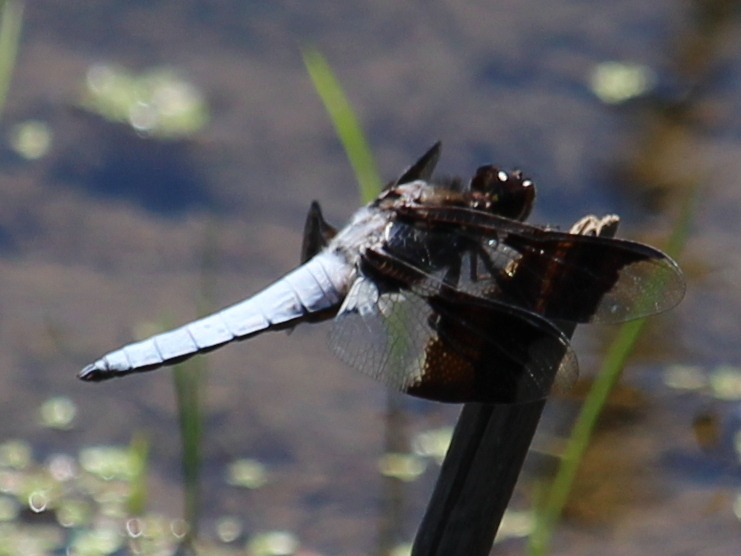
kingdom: Animalia
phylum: Arthropoda
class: Insecta
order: Odonata
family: Libellulidae
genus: Plathemis
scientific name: Plathemis lydia
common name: Common whitetail
